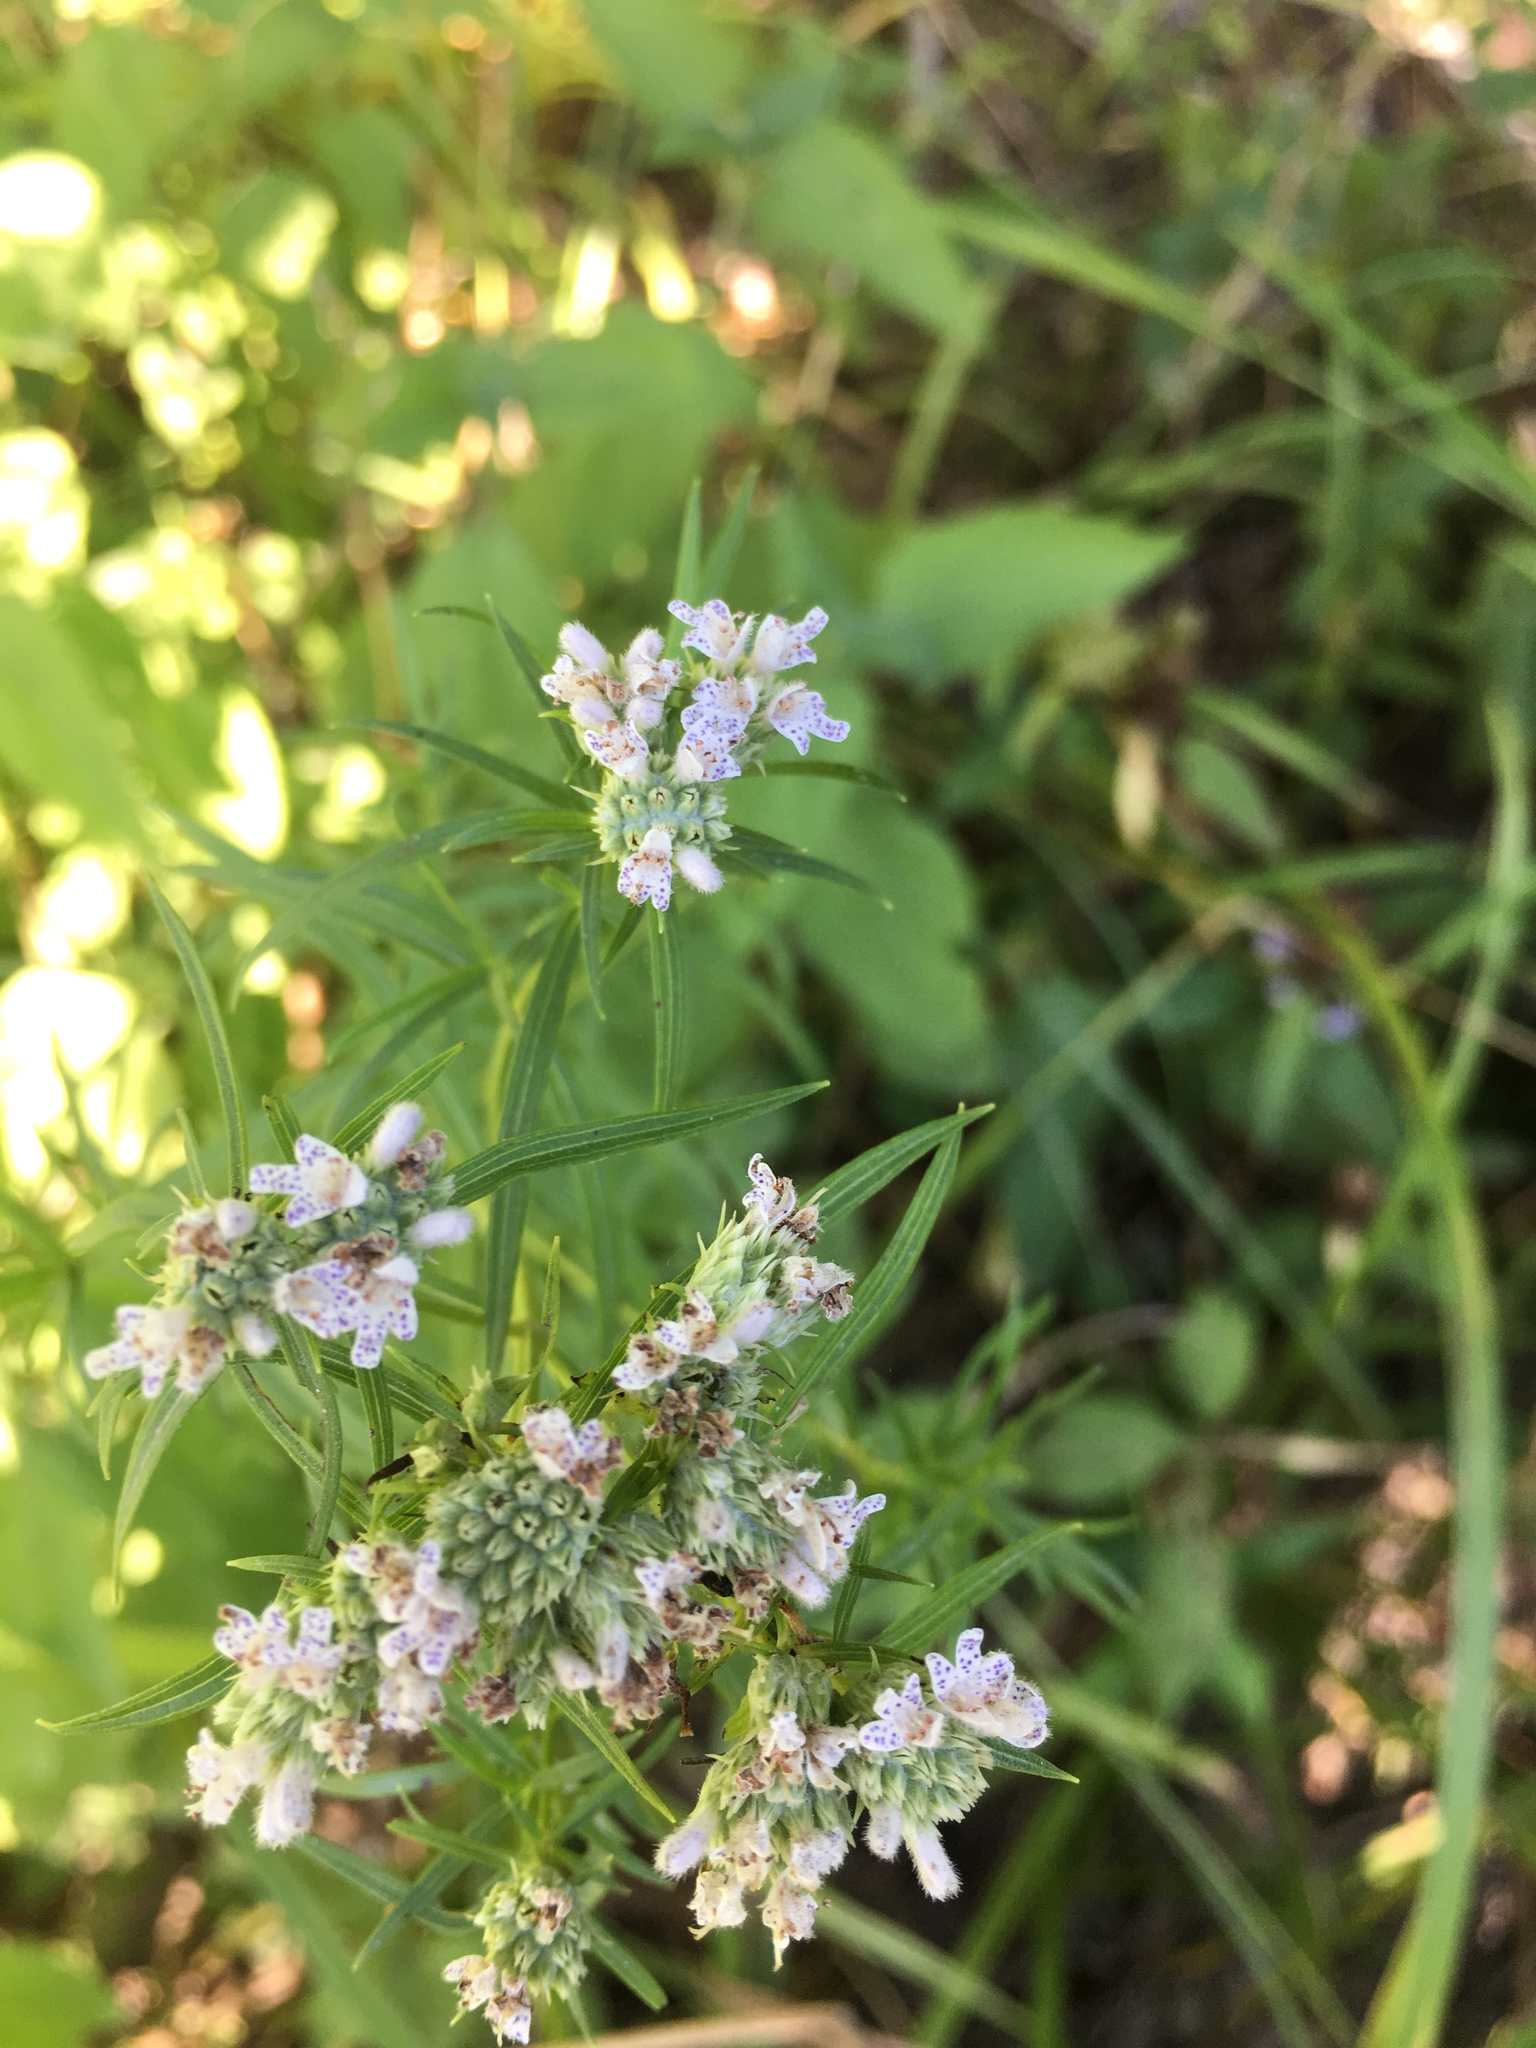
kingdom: Plantae
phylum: Tracheophyta
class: Magnoliopsida
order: Lamiales
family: Lamiaceae
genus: Pycnanthemum
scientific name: Pycnanthemum tenuifolium
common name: Narrow-leaf mountain-mint
